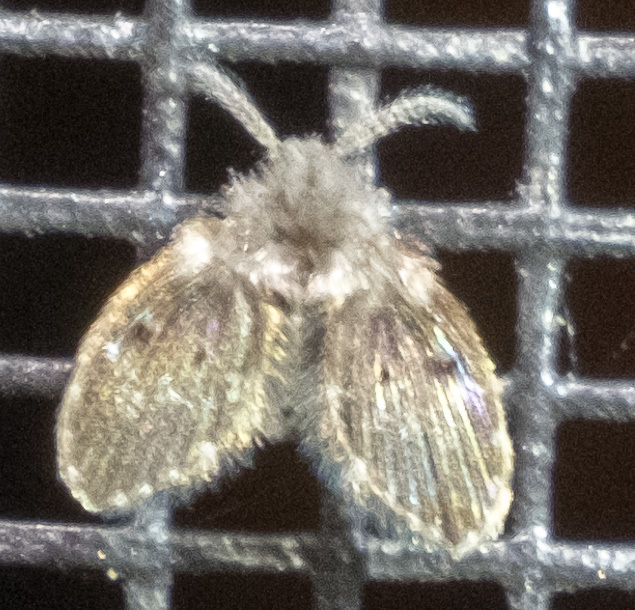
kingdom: Animalia
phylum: Arthropoda
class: Insecta
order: Diptera
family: Psychodidae
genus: Clogmia
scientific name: Clogmia albipunctatus
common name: White-spotted moth fly
